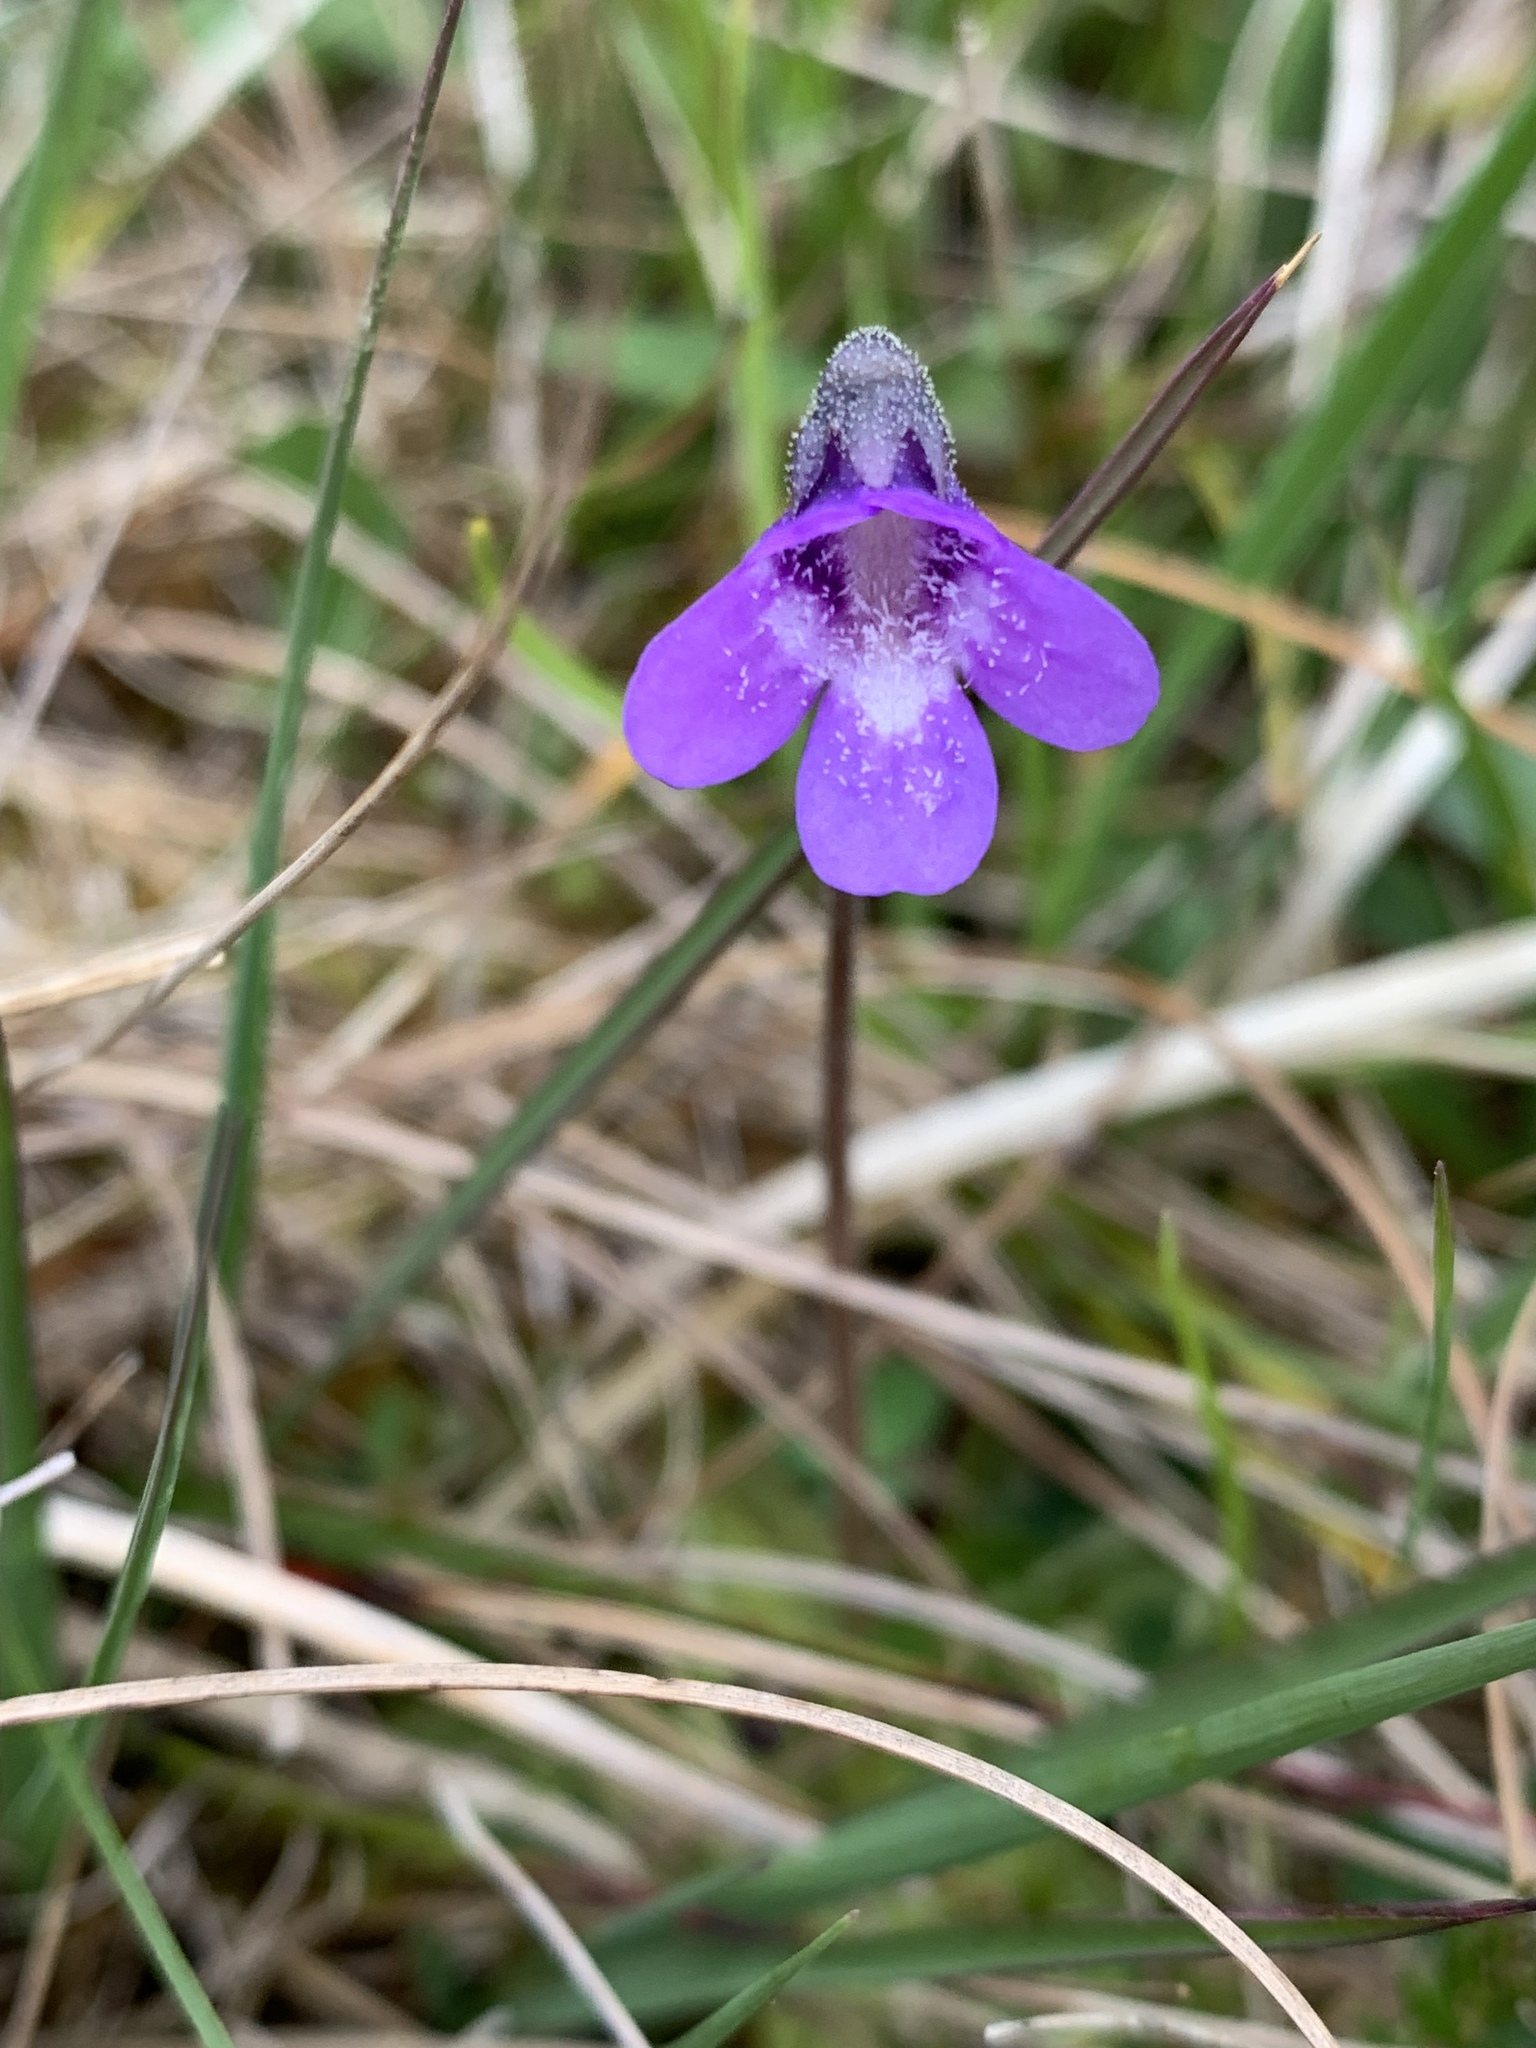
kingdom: Plantae
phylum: Tracheophyta
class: Magnoliopsida
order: Lamiales
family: Lentibulariaceae
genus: Pinguicula
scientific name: Pinguicula vulgaris
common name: Common butterwort
